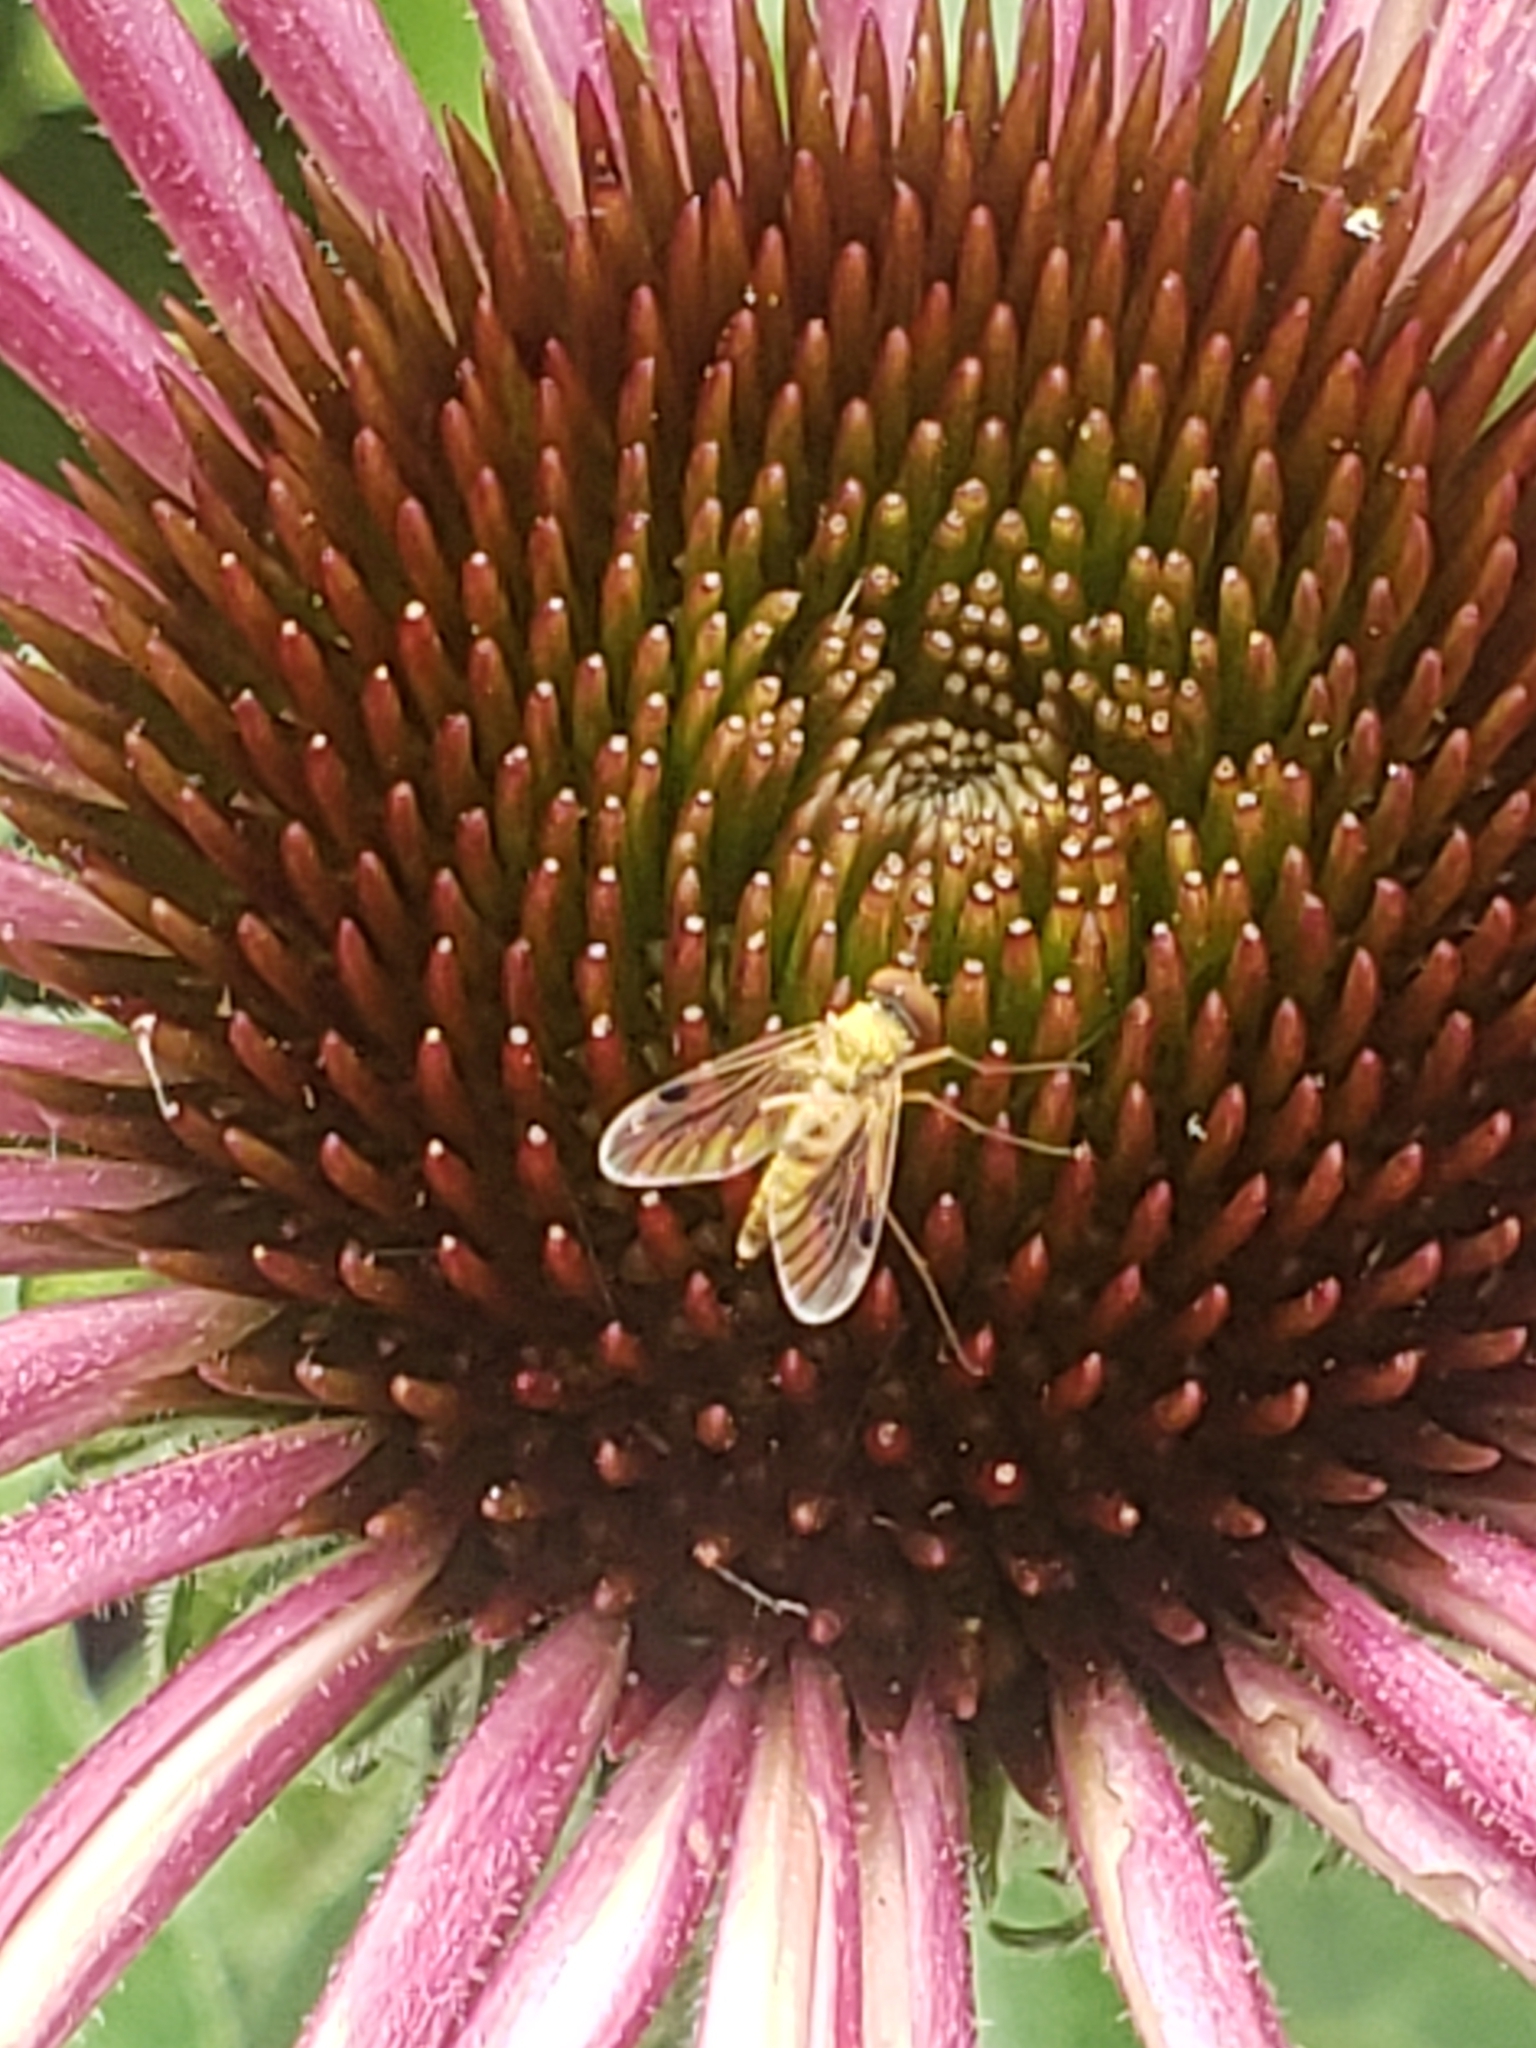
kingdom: Animalia
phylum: Arthropoda
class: Insecta
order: Diptera
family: Rhagionidae
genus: Chrysopilus
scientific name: Chrysopilus modestus
